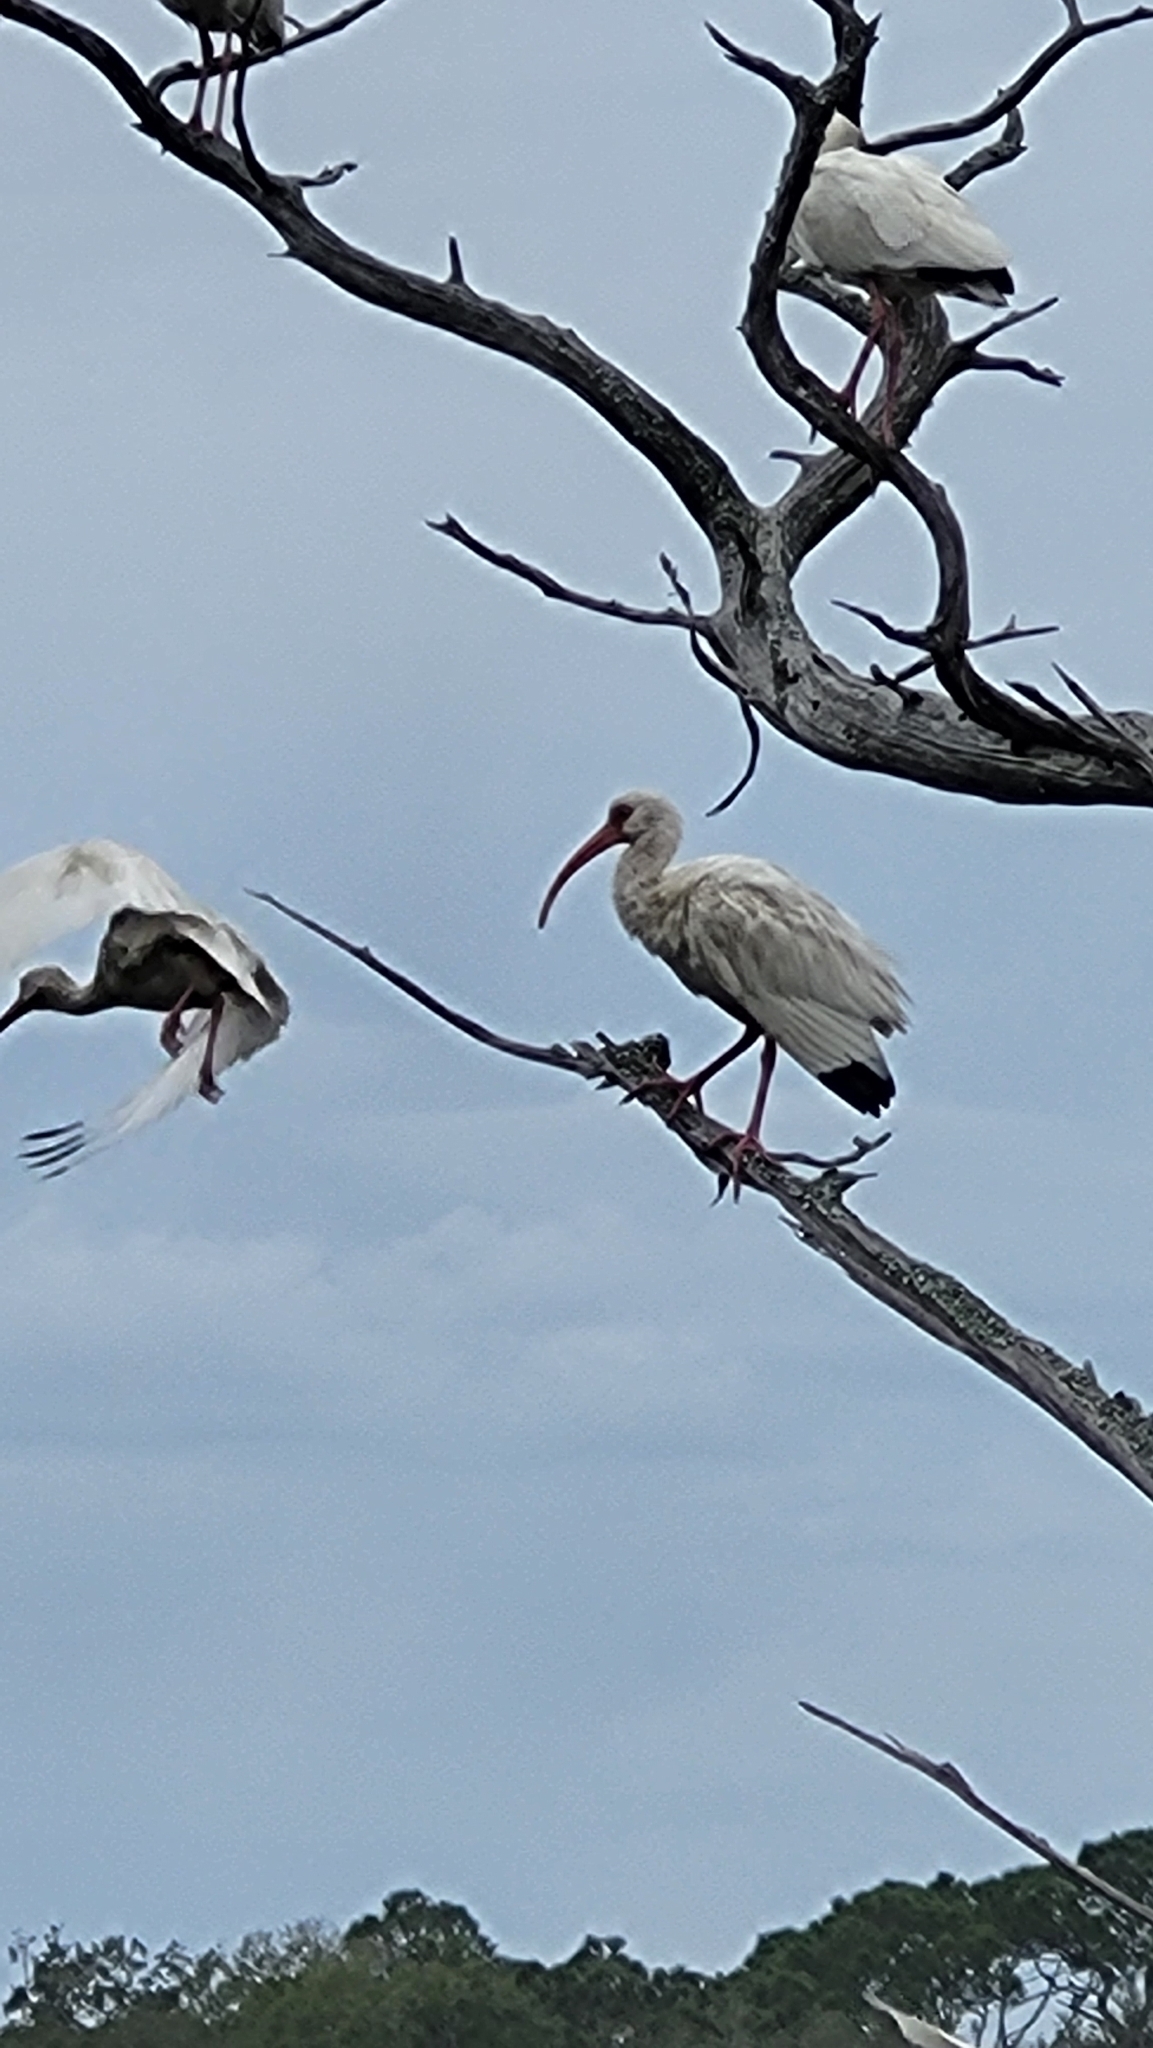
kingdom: Animalia
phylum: Chordata
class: Aves
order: Pelecaniformes
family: Threskiornithidae
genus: Eudocimus
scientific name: Eudocimus albus
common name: White ibis
